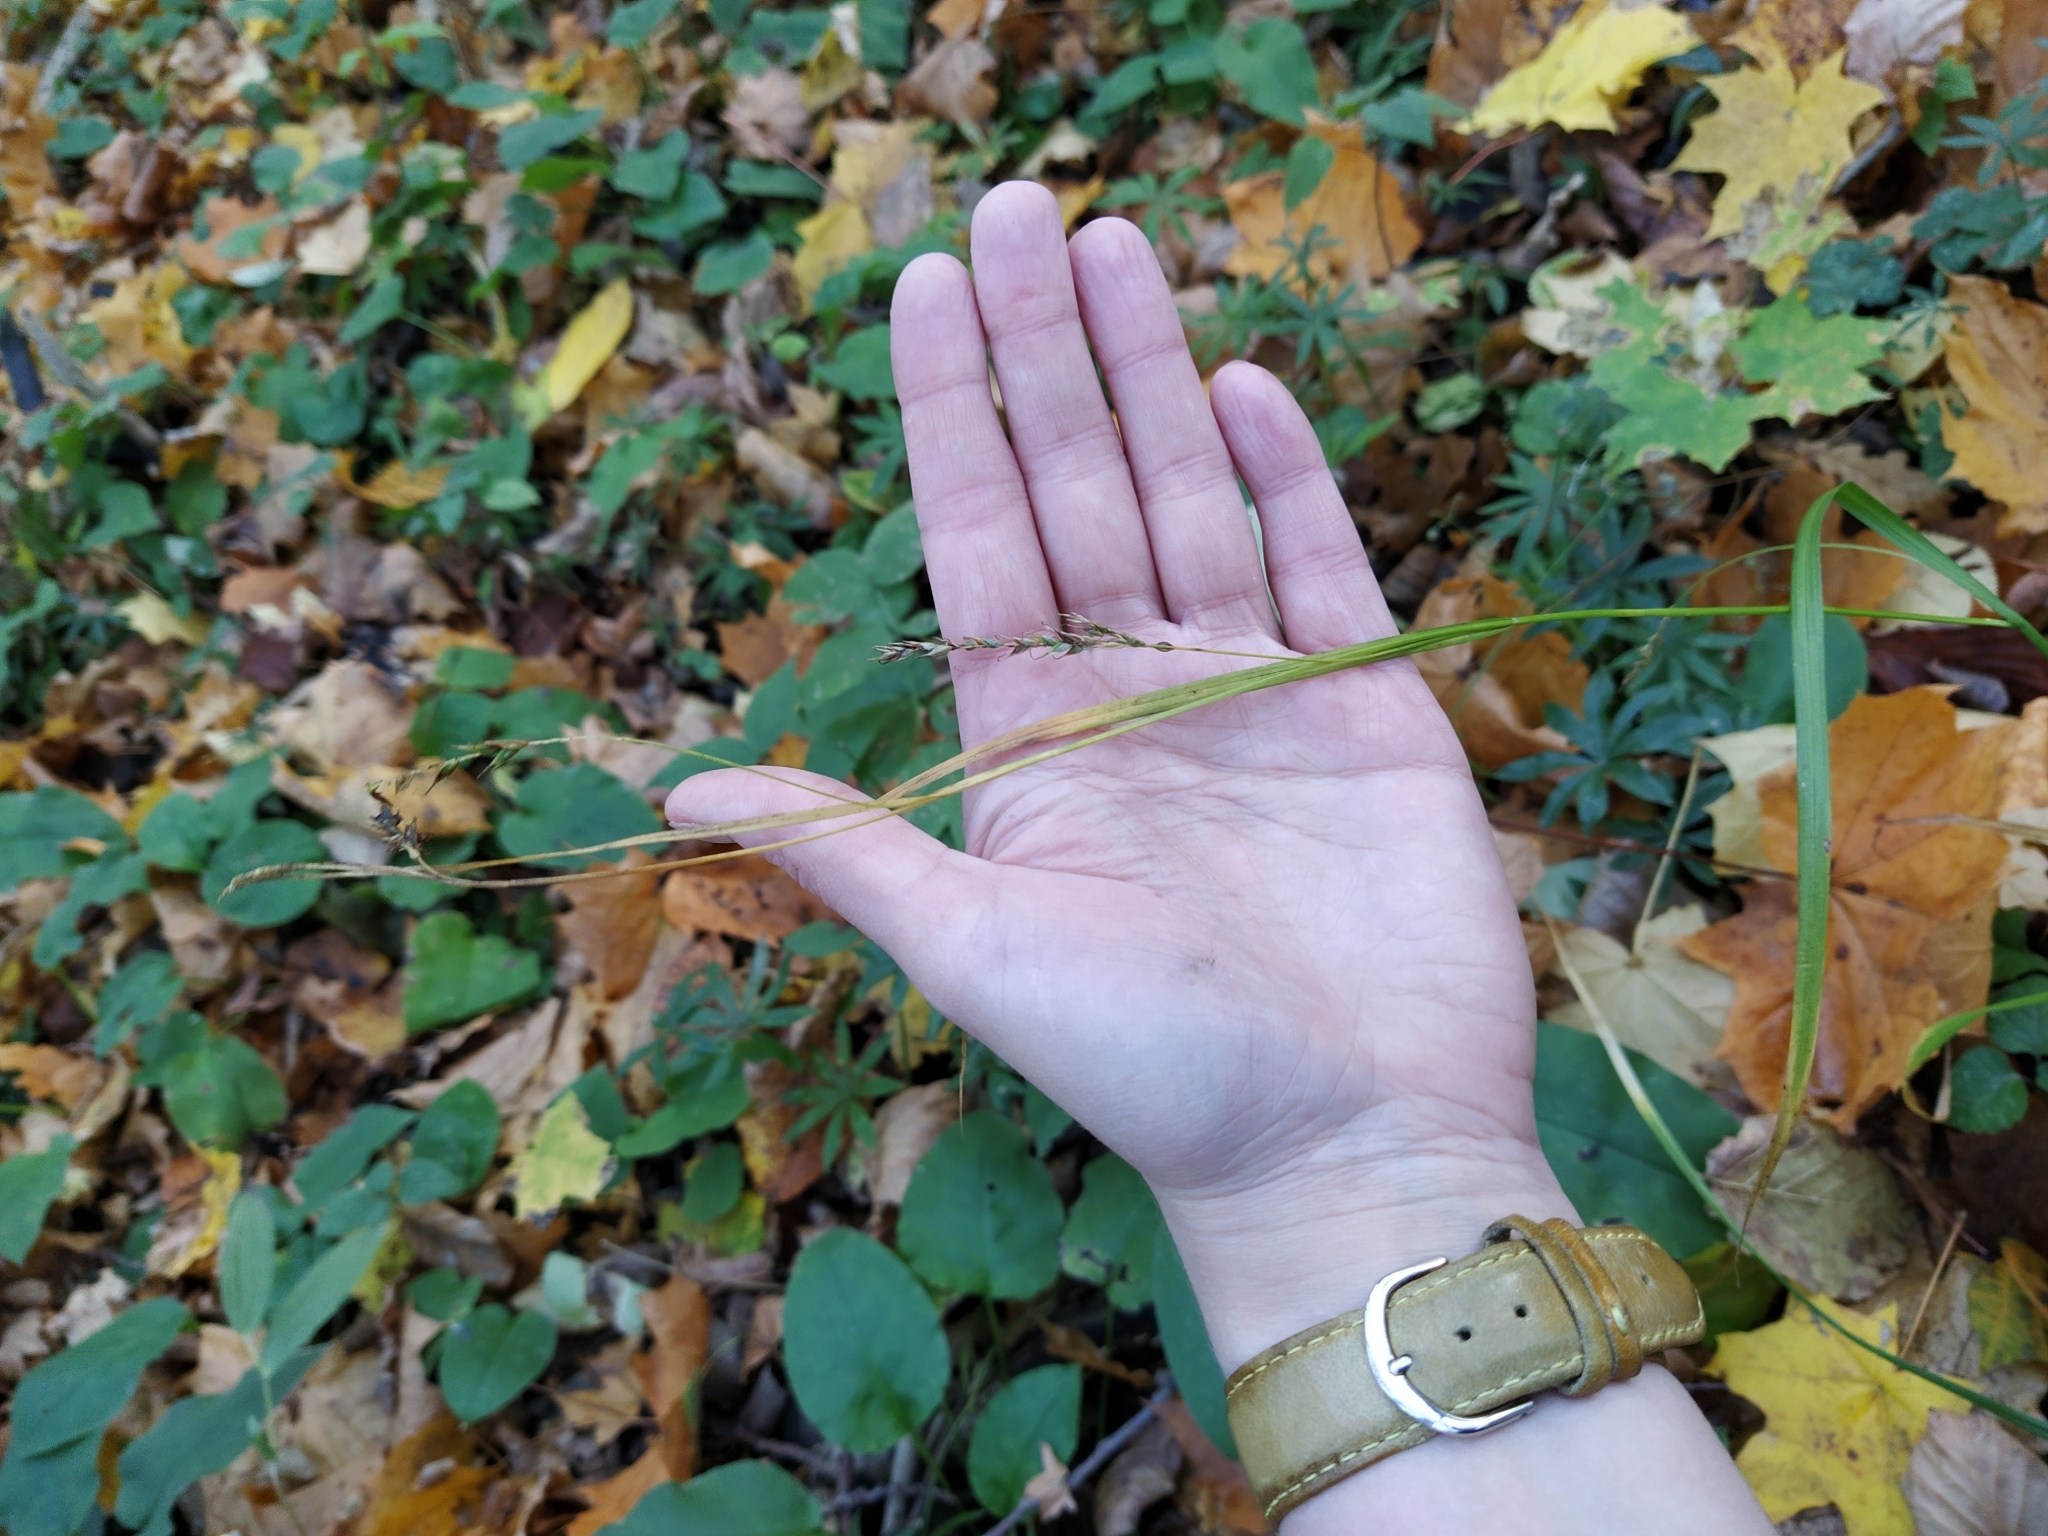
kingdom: Plantae
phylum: Tracheophyta
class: Liliopsida
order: Poales
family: Cyperaceae
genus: Carex
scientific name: Carex sylvatica
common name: Wood-sedge
